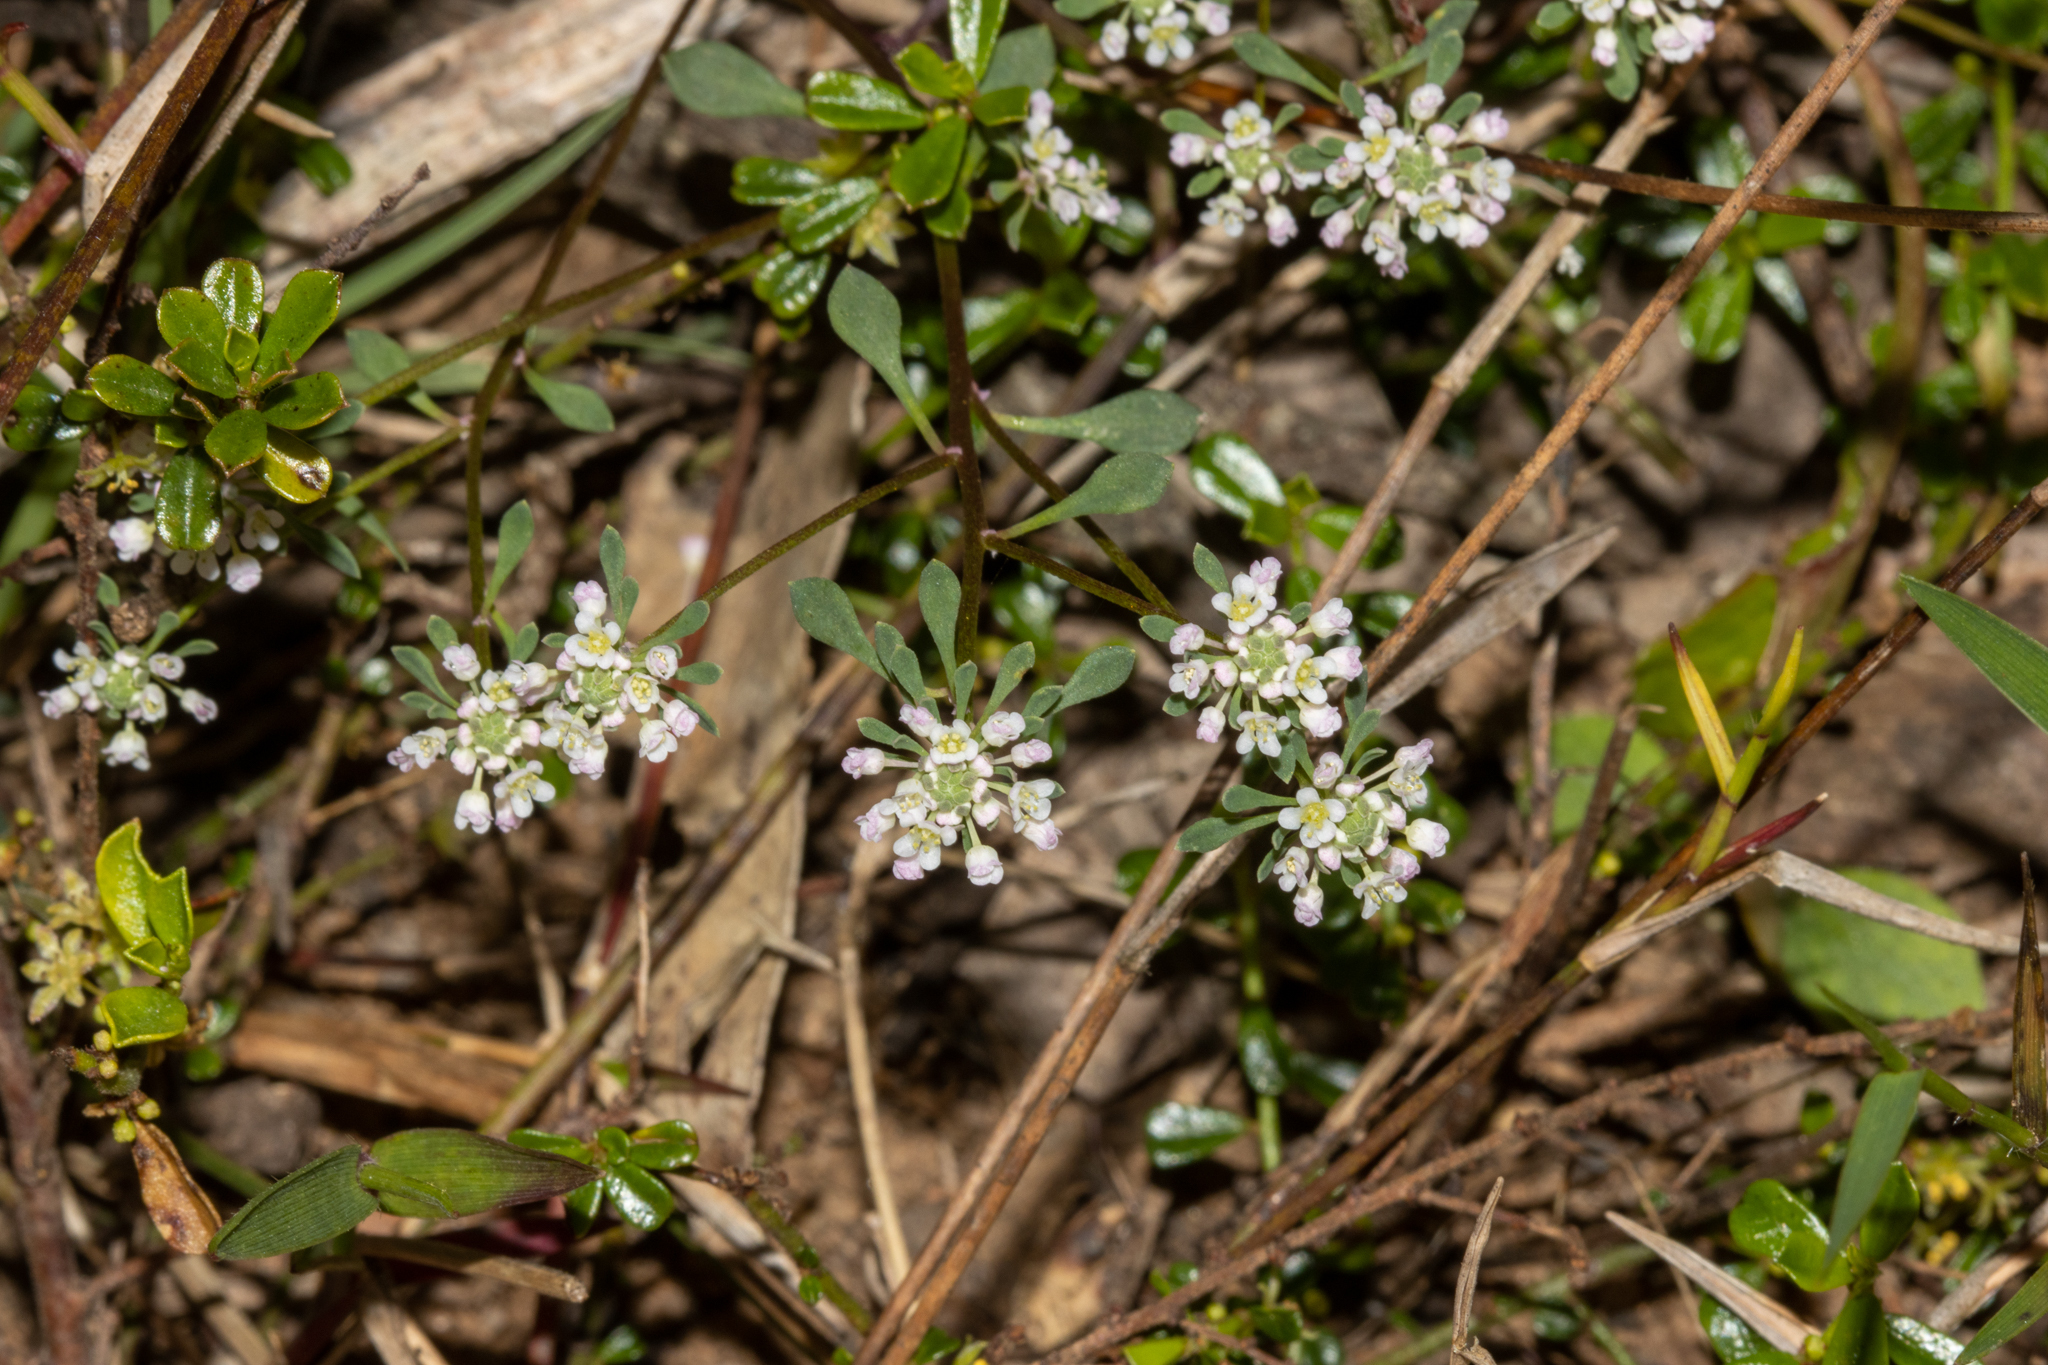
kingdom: Plantae
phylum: Tracheophyta
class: Magnoliopsida
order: Malpighiales
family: Phyllanthaceae
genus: Poranthera
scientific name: Poranthera microphylla
